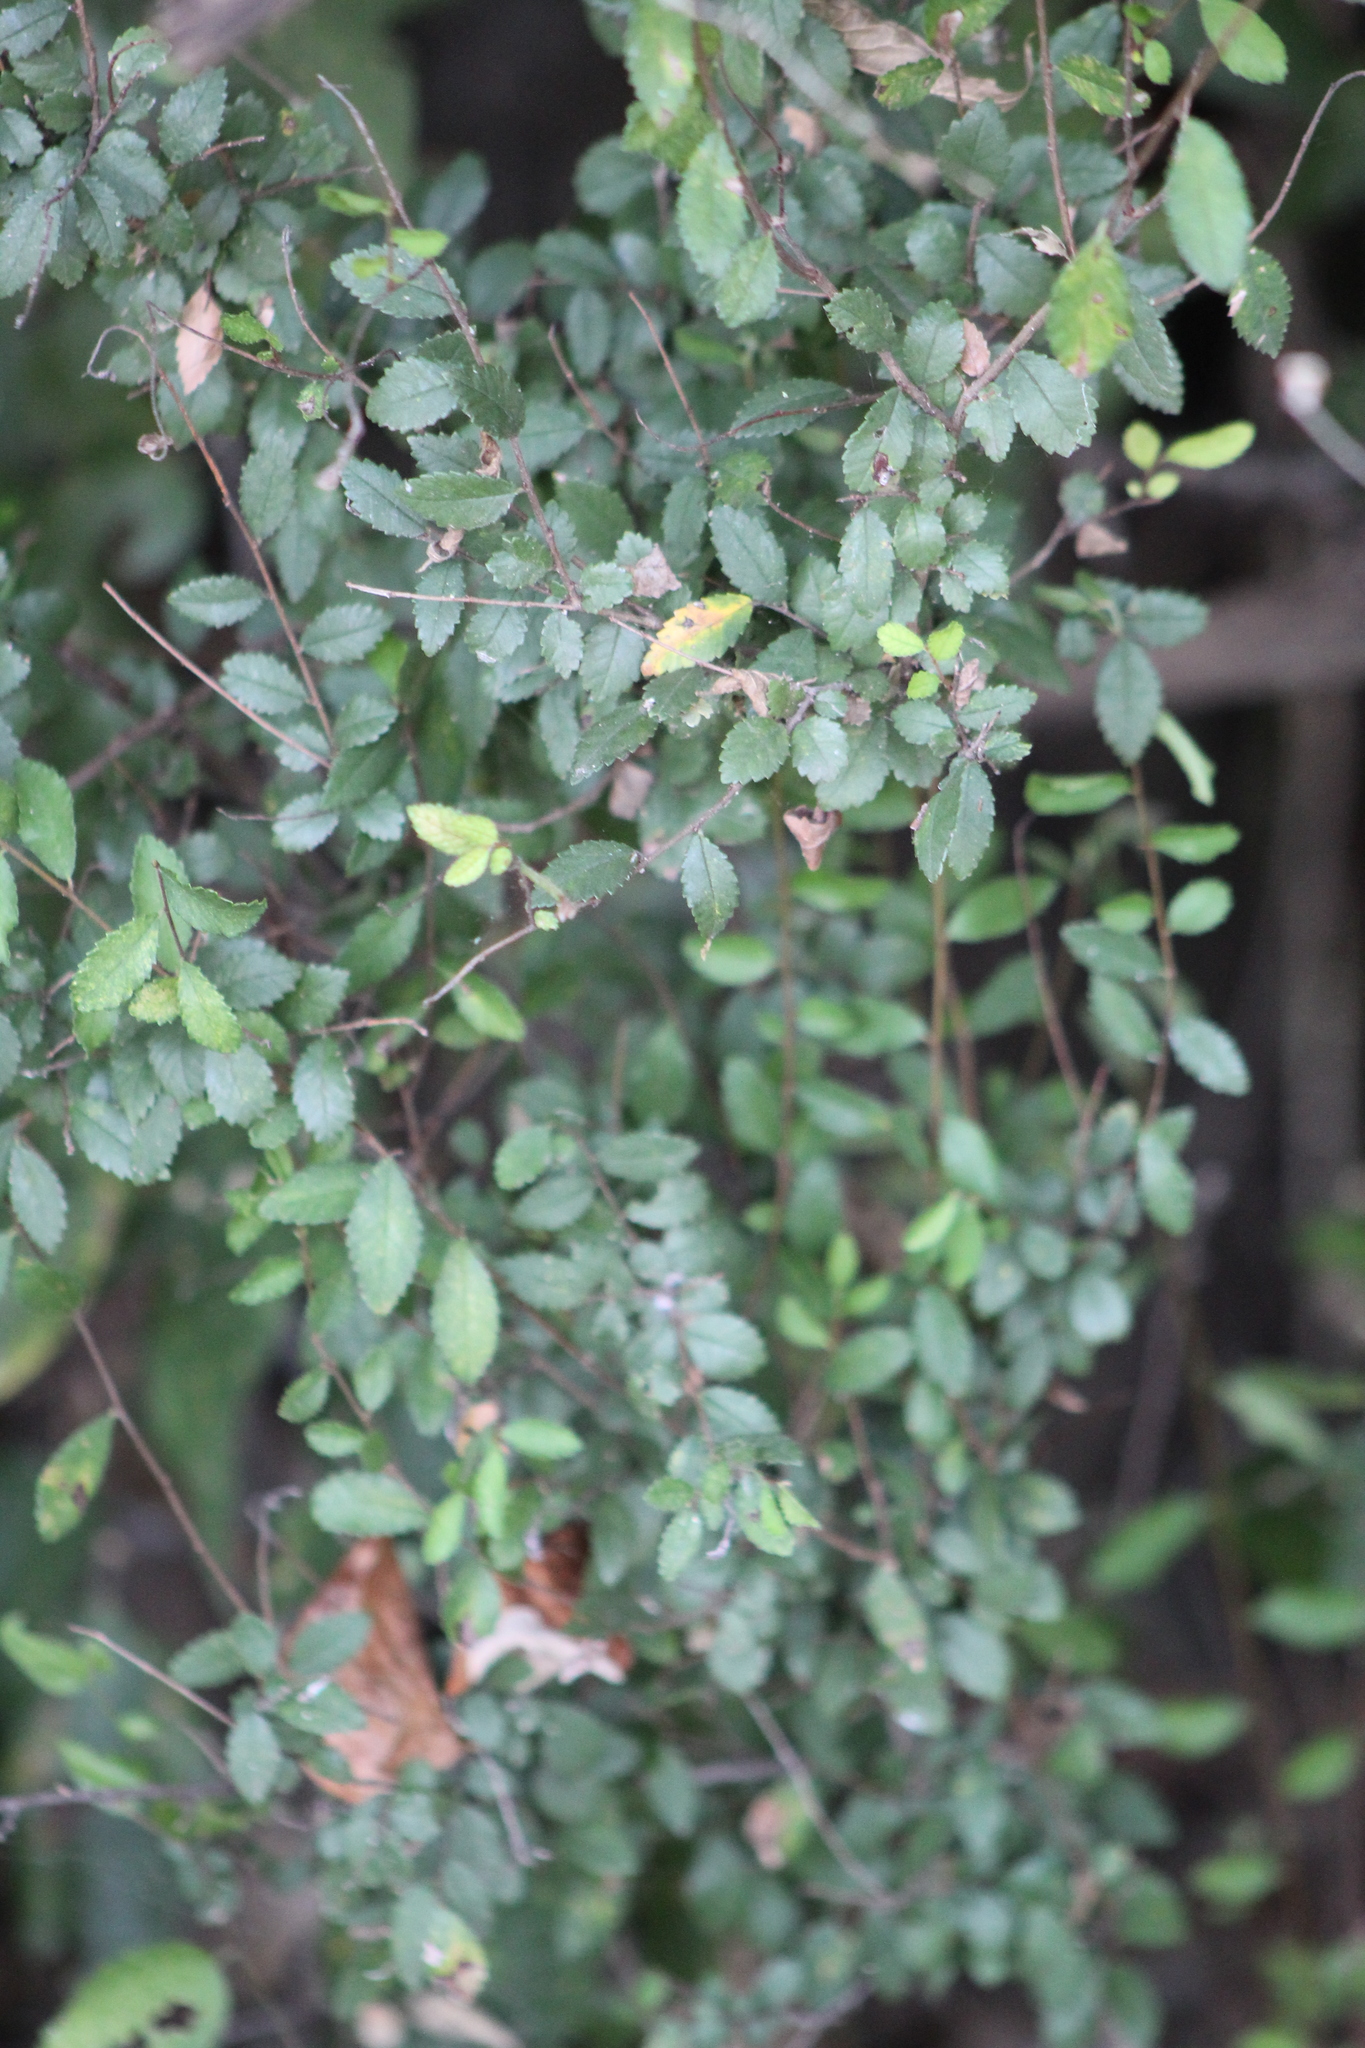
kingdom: Plantae
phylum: Tracheophyta
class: Magnoliopsida
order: Rosales
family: Ulmaceae
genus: Ulmus
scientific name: Ulmus crassifolia
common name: Basket elm
